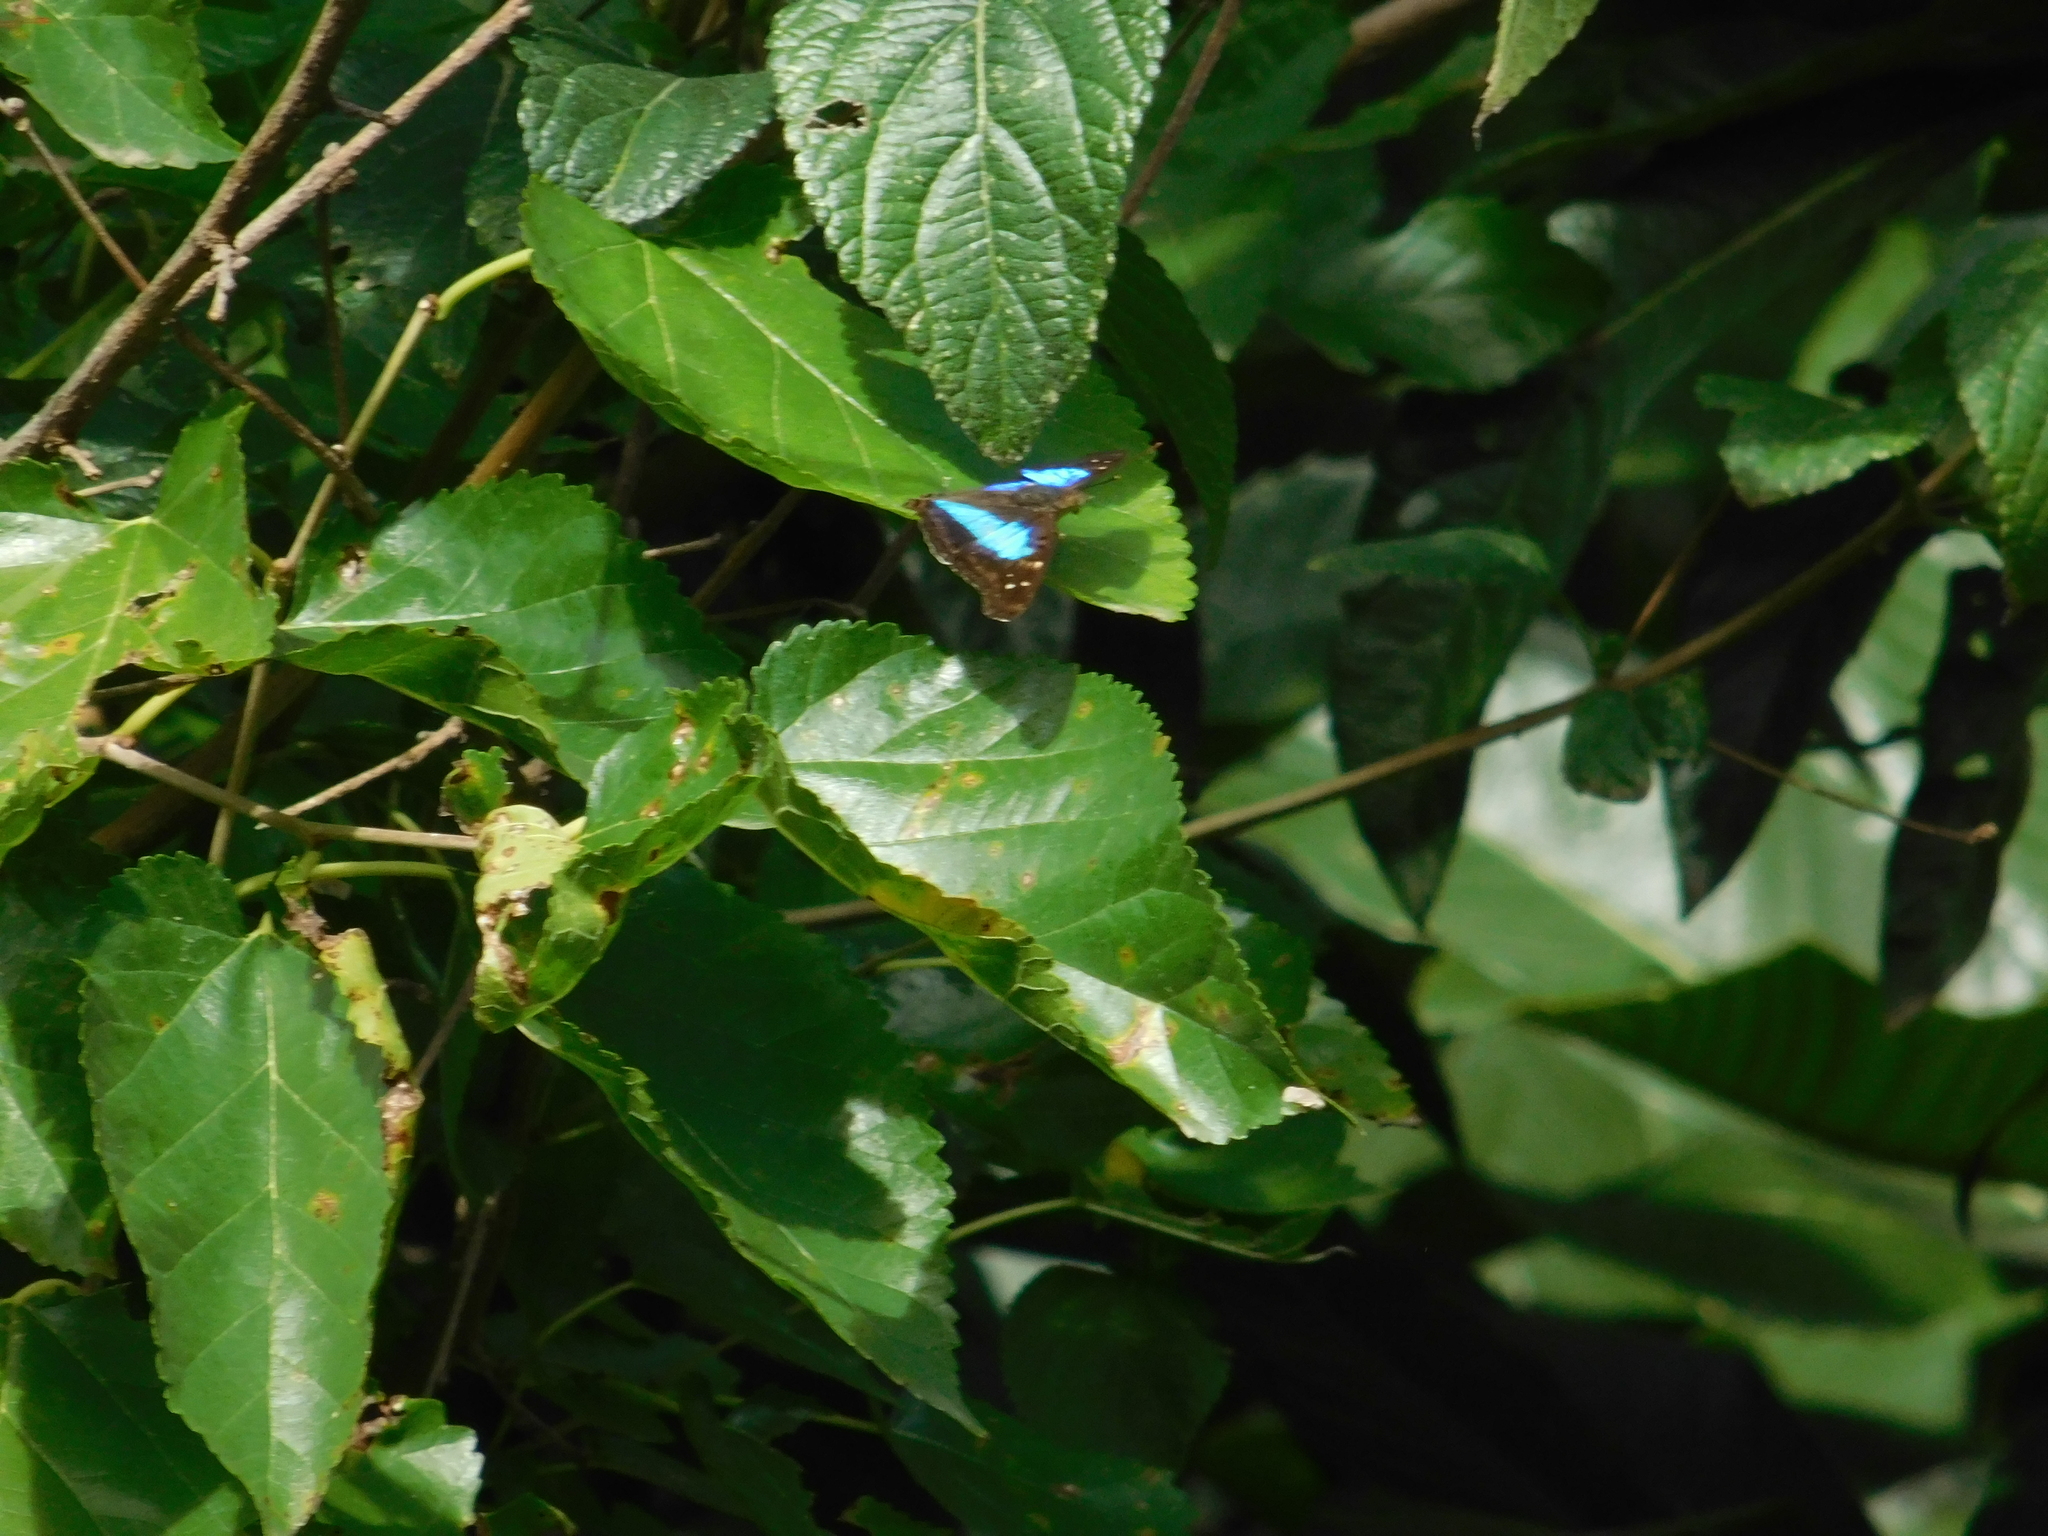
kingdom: Animalia
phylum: Arthropoda
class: Insecta
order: Lepidoptera
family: Nymphalidae
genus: Doxocopa
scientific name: Doxocopa laurentia
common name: Turquoise emperor
